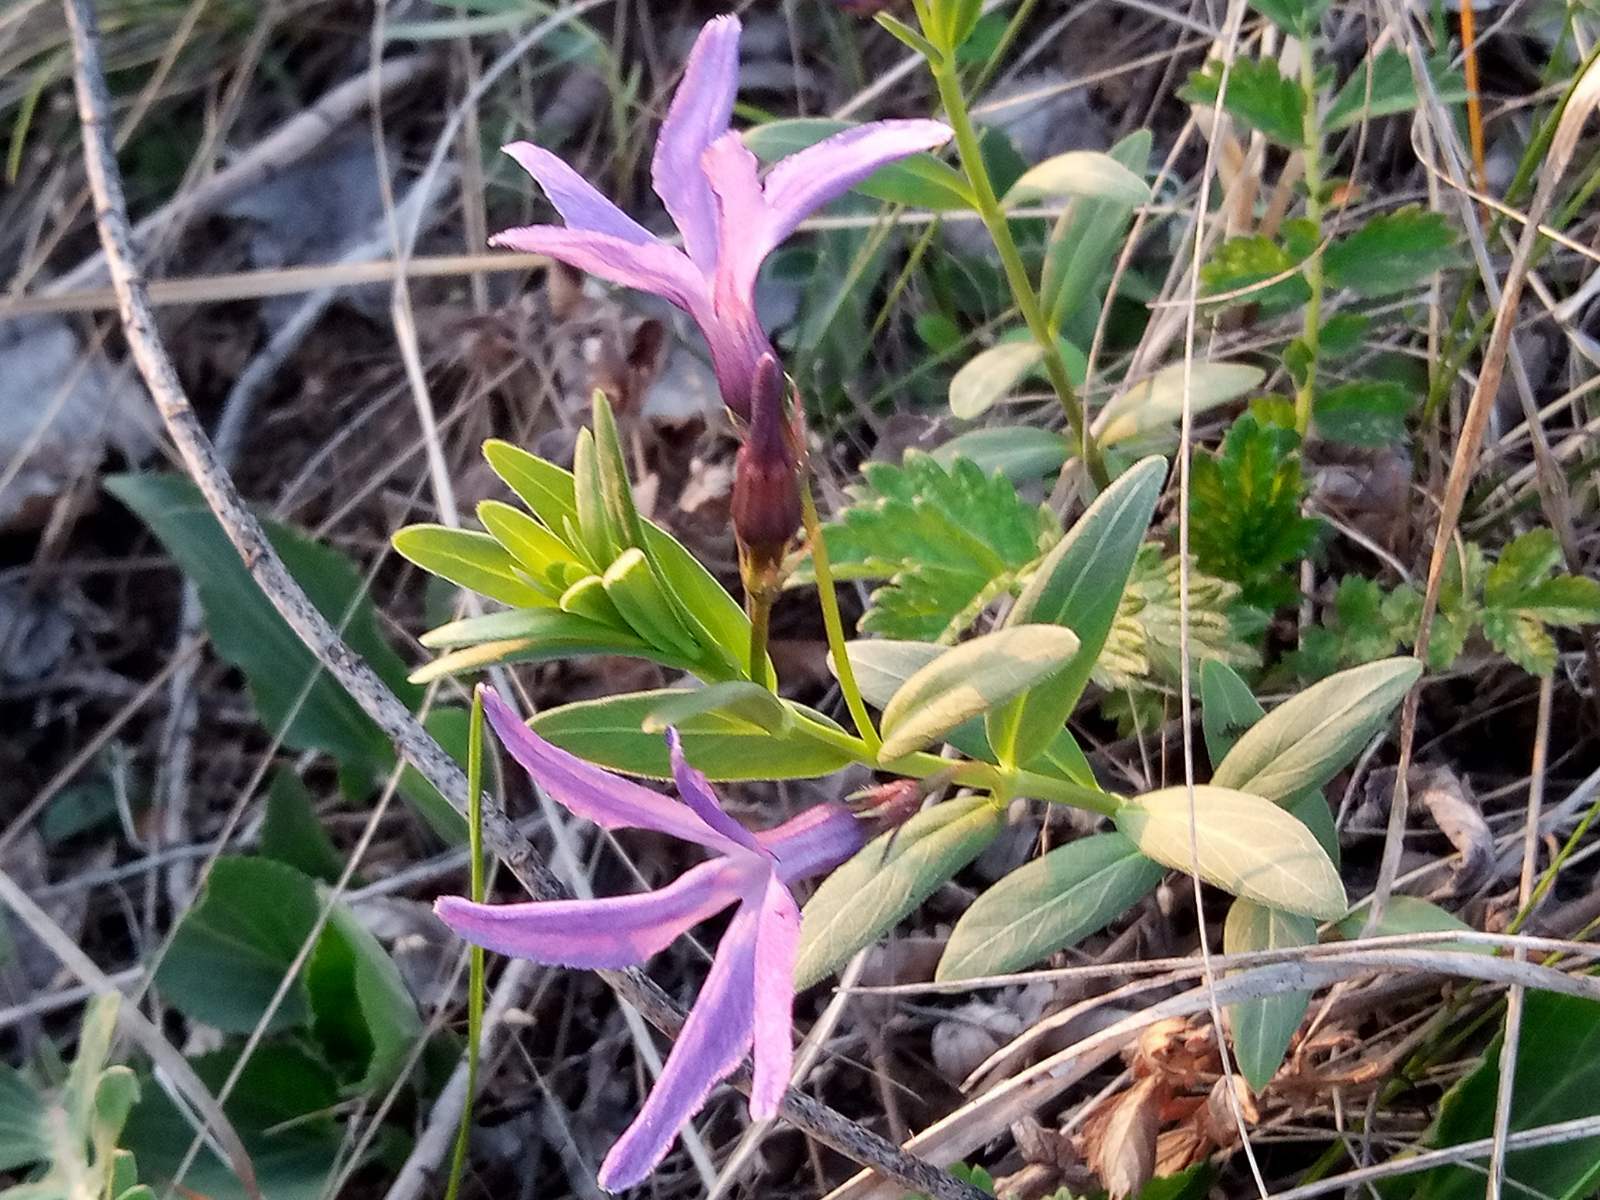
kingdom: Plantae
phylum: Tracheophyta
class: Magnoliopsida
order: Gentianales
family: Apocynaceae
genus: Vinca
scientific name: Vinca herbacea
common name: Herbaceous periwinkle
